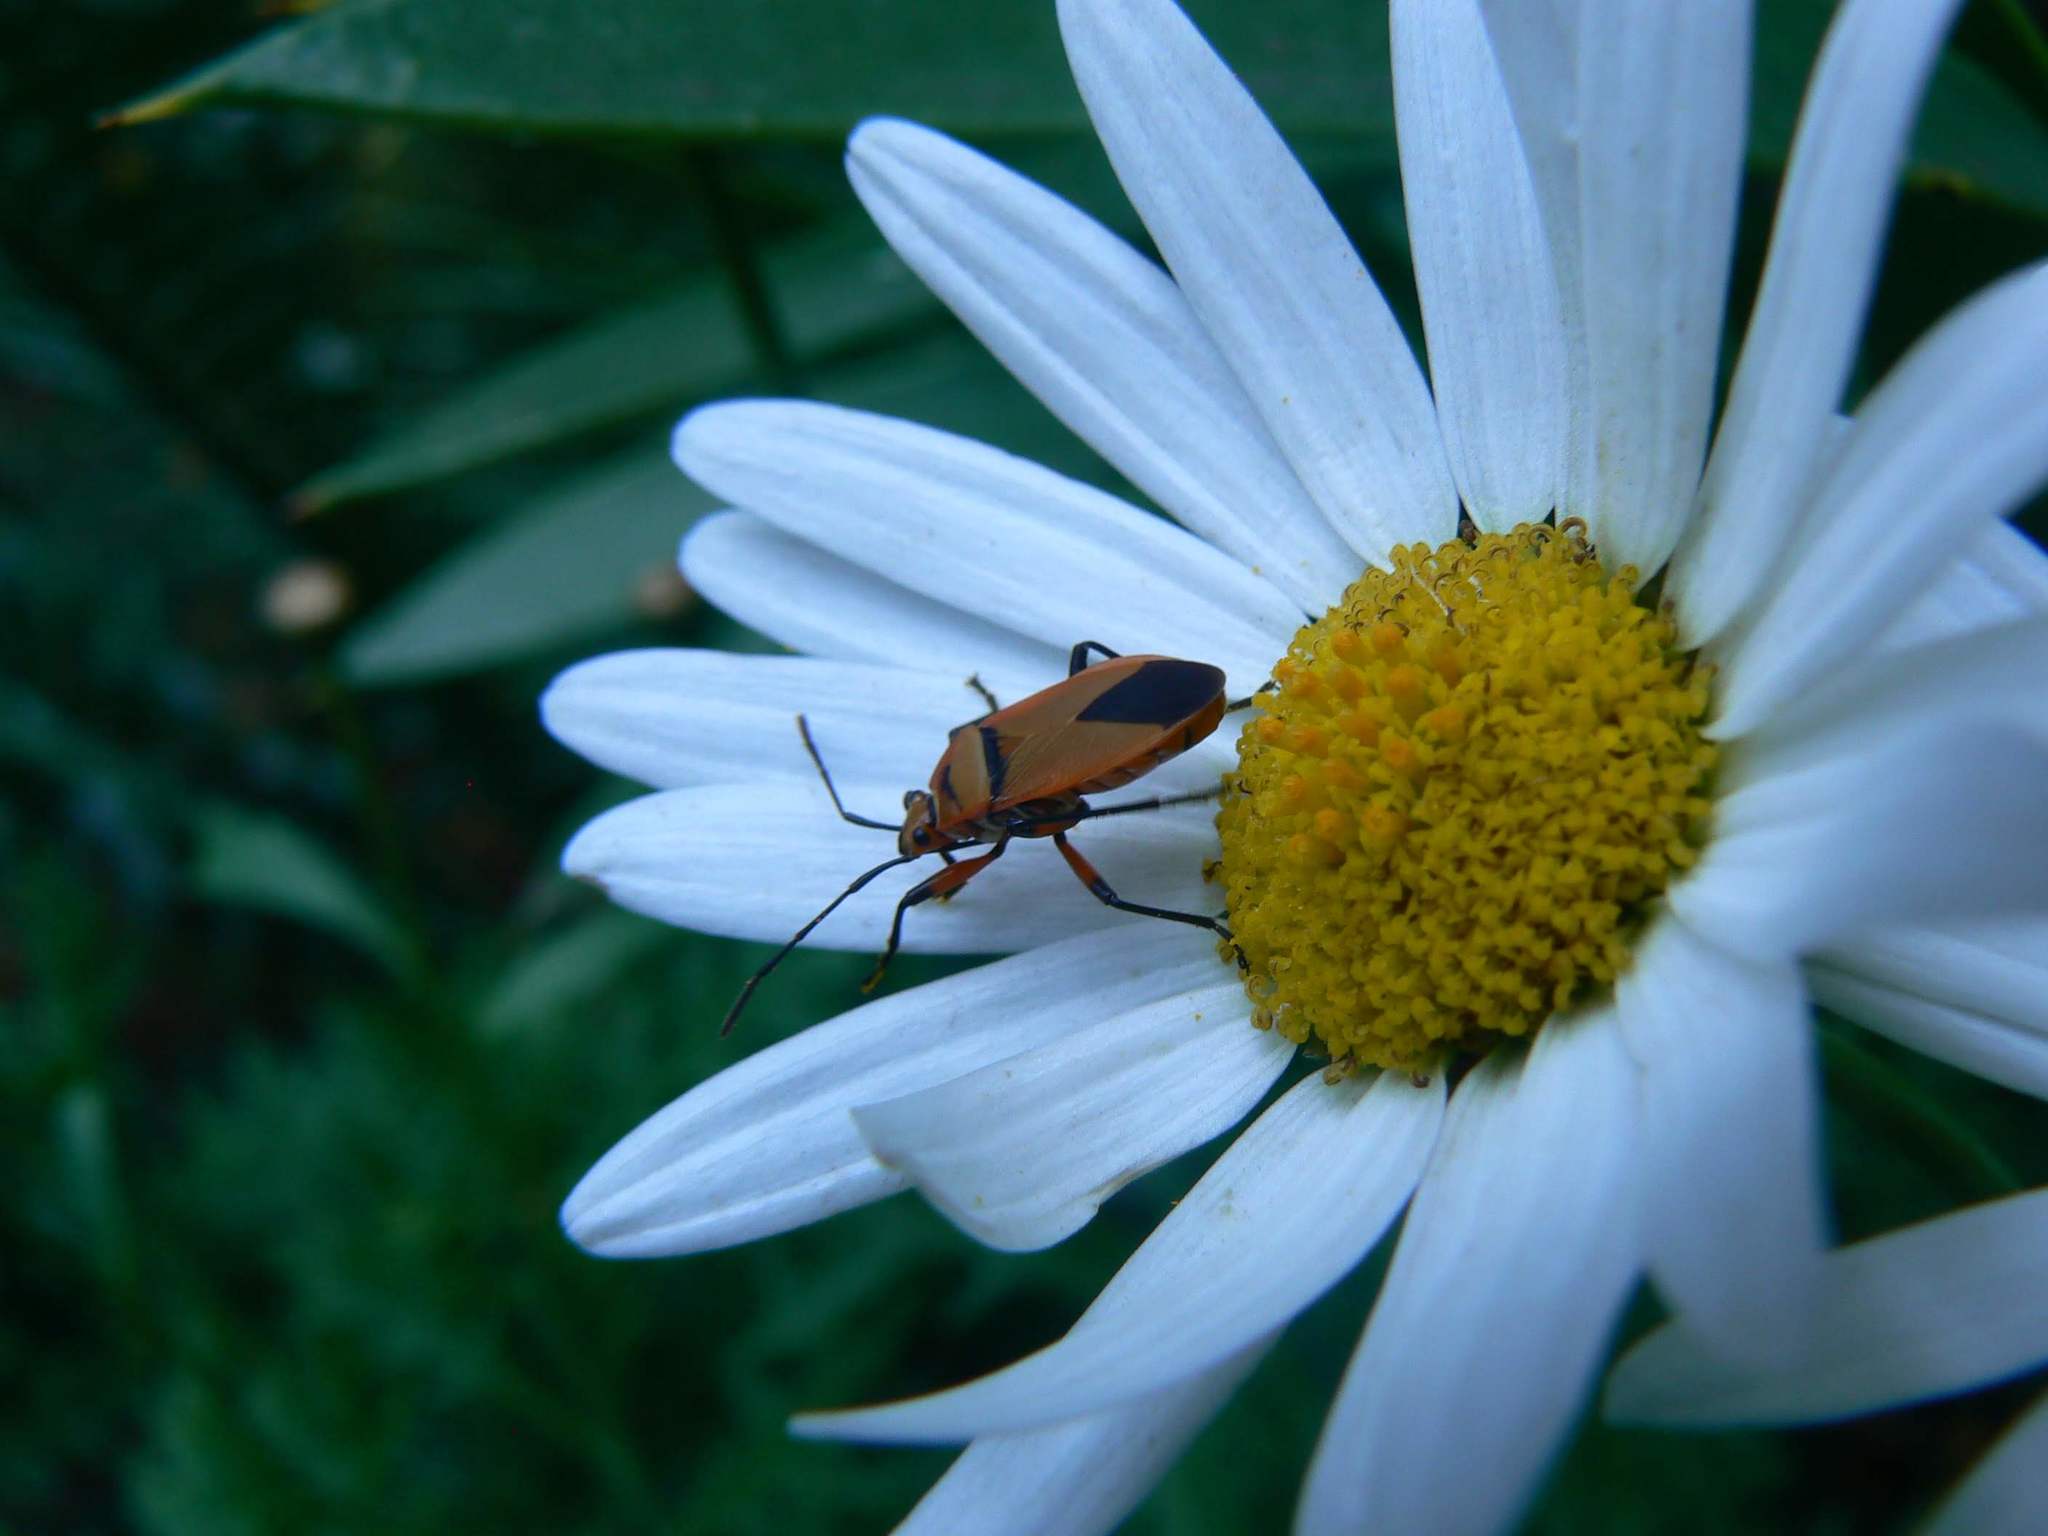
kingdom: Animalia
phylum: Arthropoda
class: Insecta
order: Hemiptera
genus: Cenaeus
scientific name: Cenaeus
